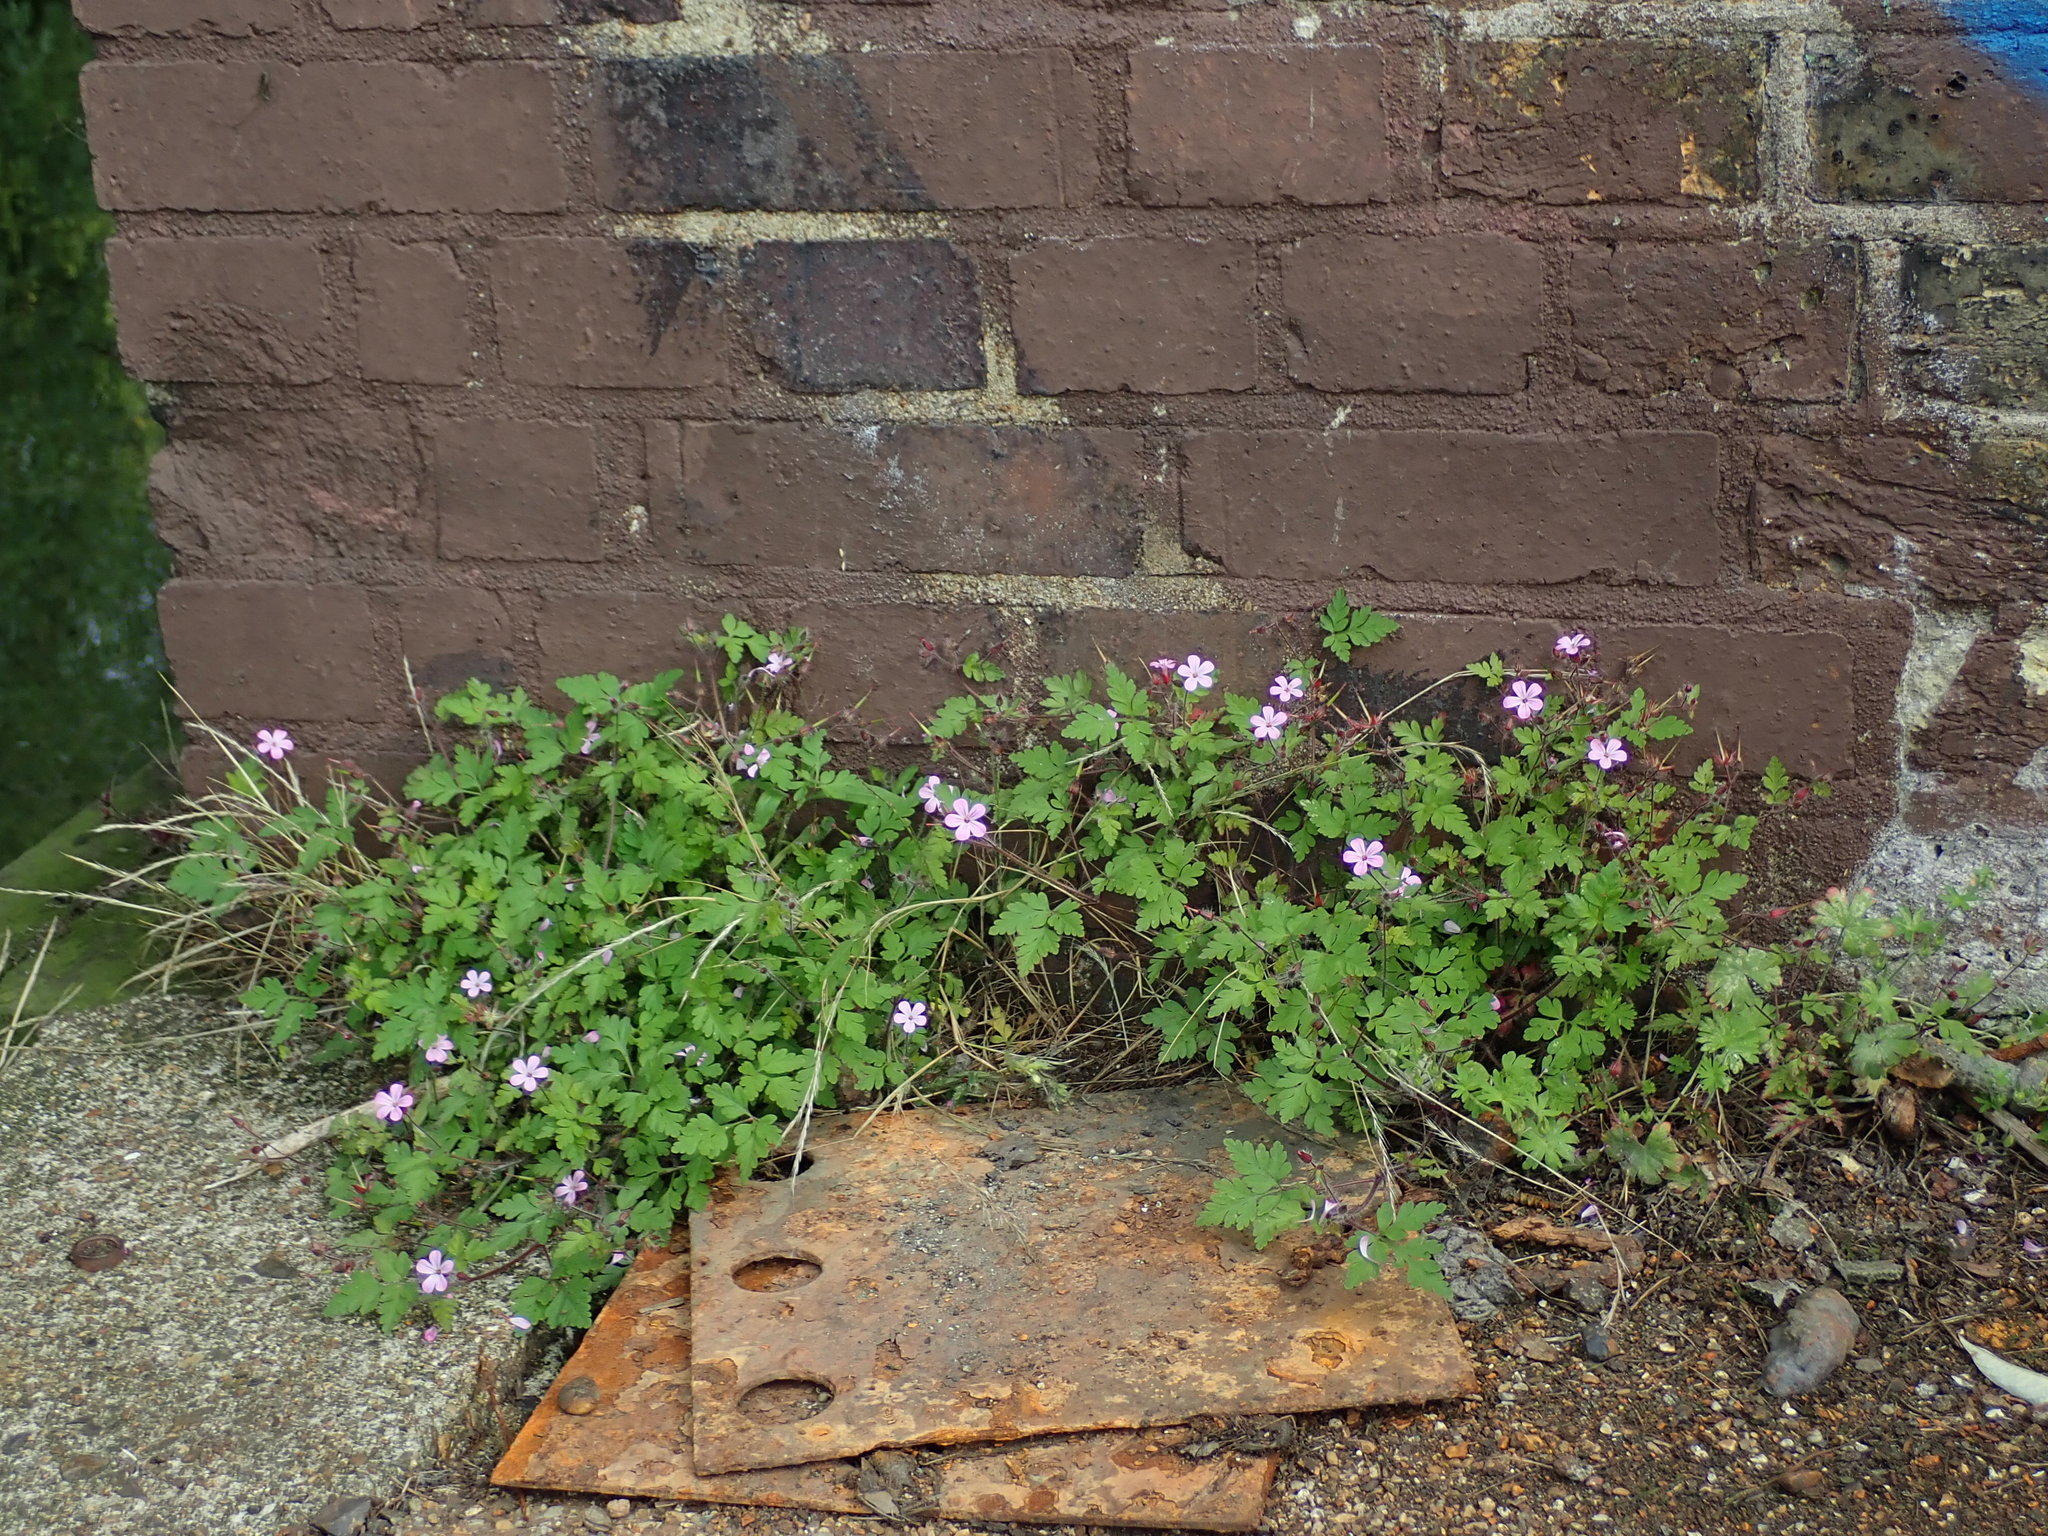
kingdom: Plantae
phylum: Tracheophyta
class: Magnoliopsida
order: Geraniales
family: Geraniaceae
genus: Geranium
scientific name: Geranium robertianum
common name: Herb-robert
